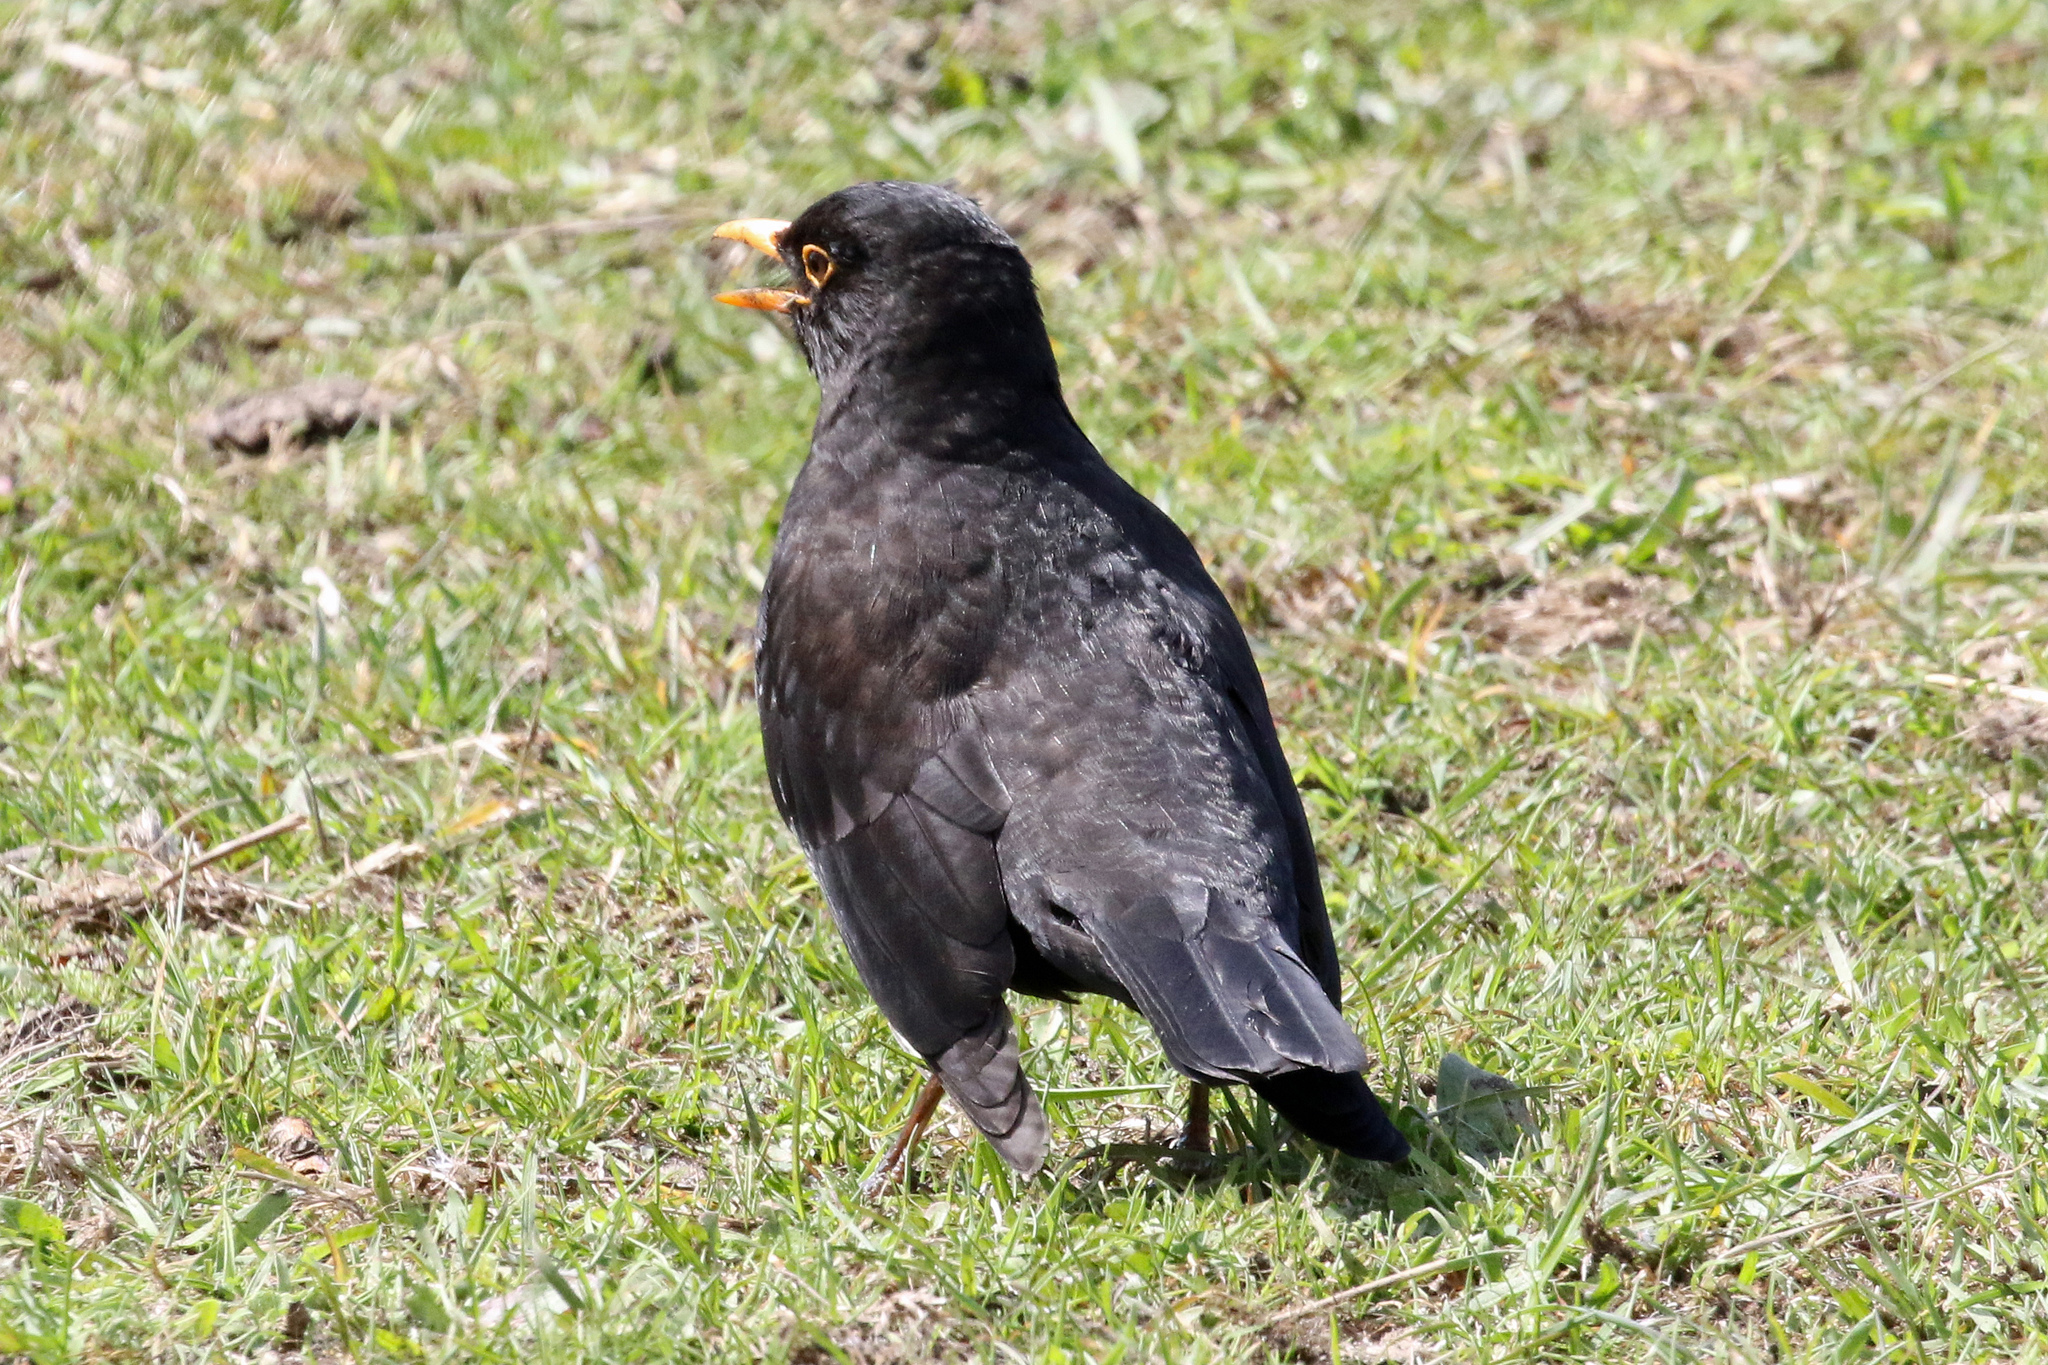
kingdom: Animalia
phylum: Chordata
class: Aves
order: Passeriformes
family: Turdidae
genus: Turdus
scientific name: Turdus merula
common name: Common blackbird
